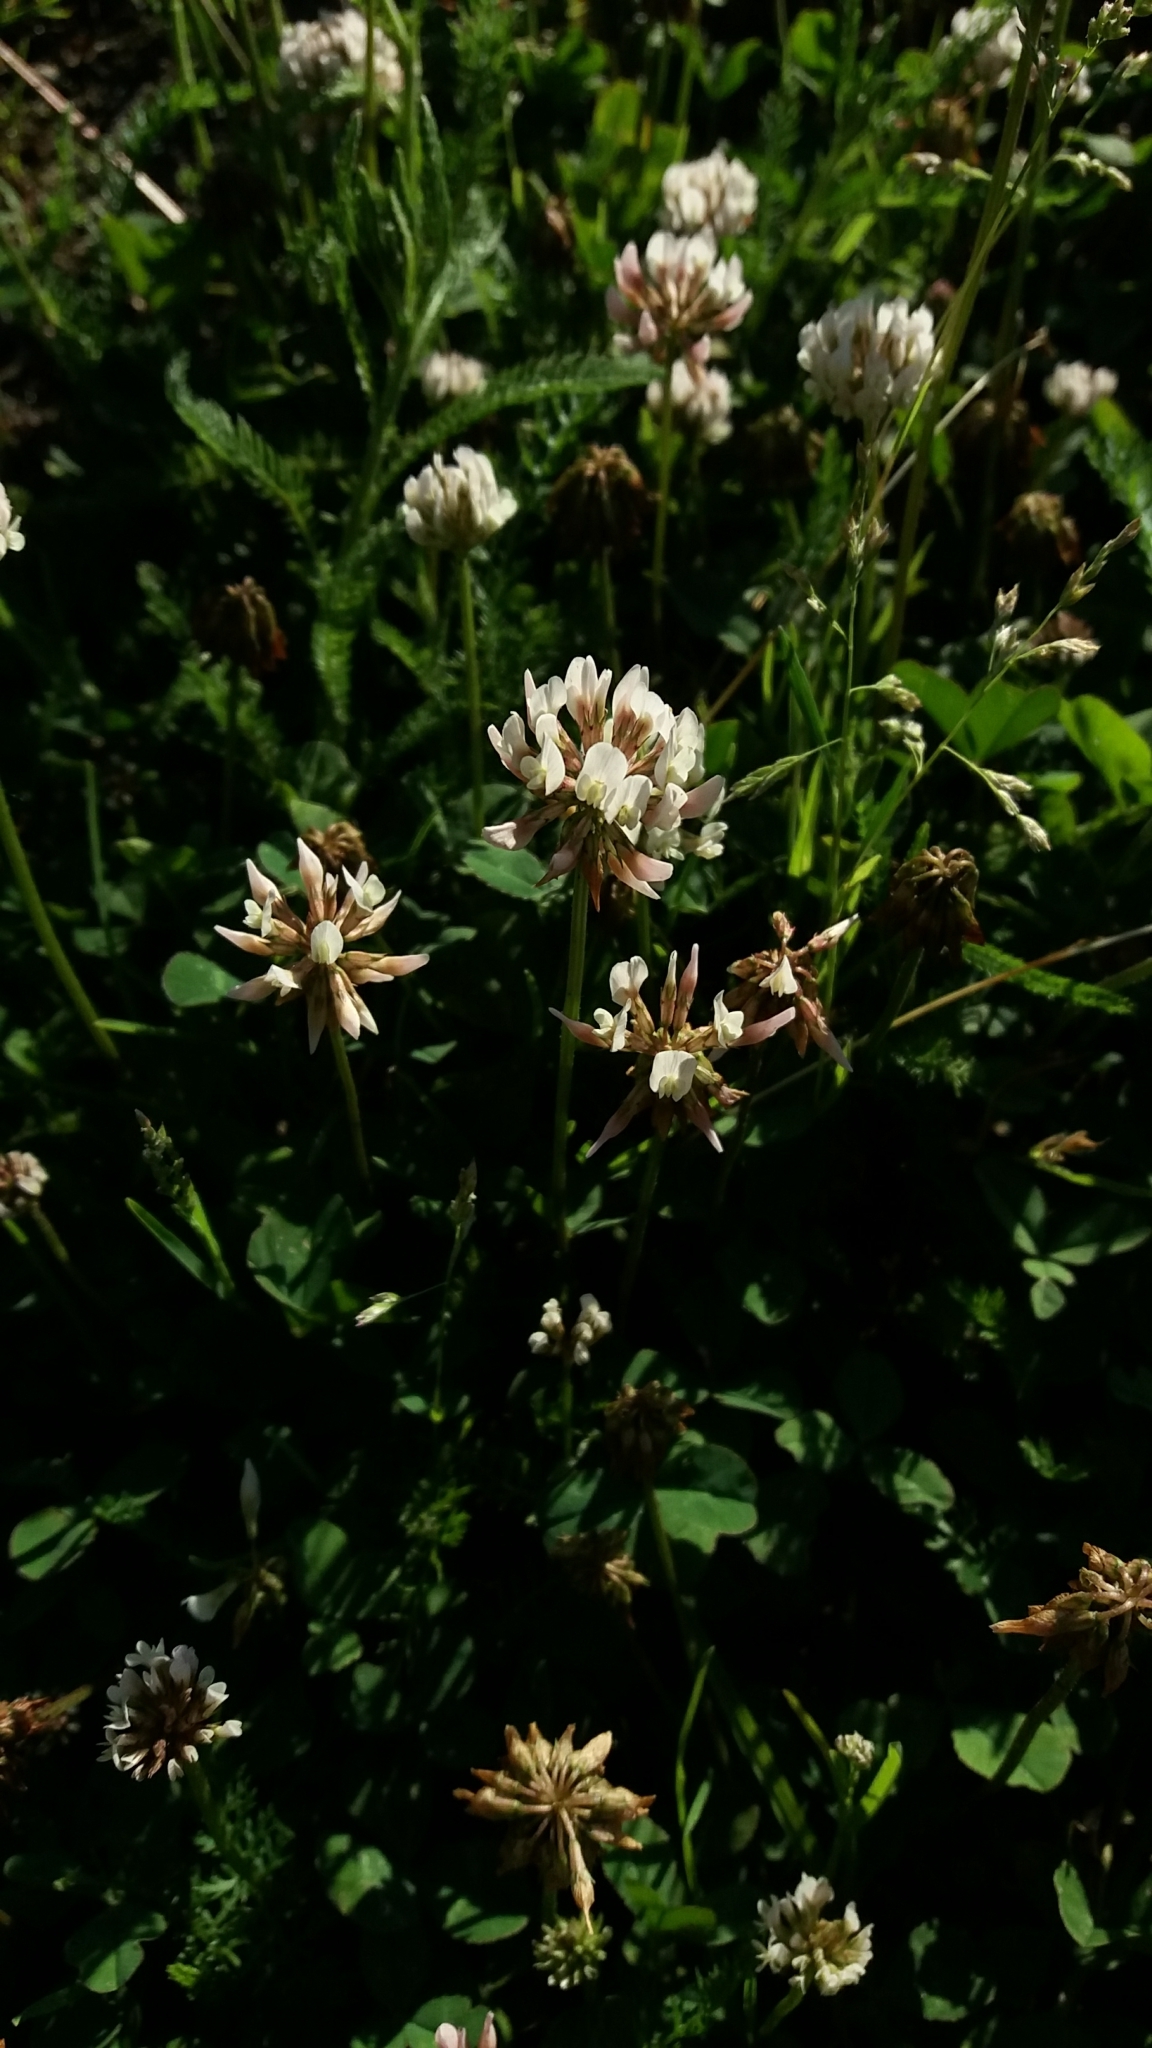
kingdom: Plantae
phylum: Tracheophyta
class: Magnoliopsida
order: Fabales
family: Fabaceae
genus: Trifolium
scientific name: Trifolium repens
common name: White clover
